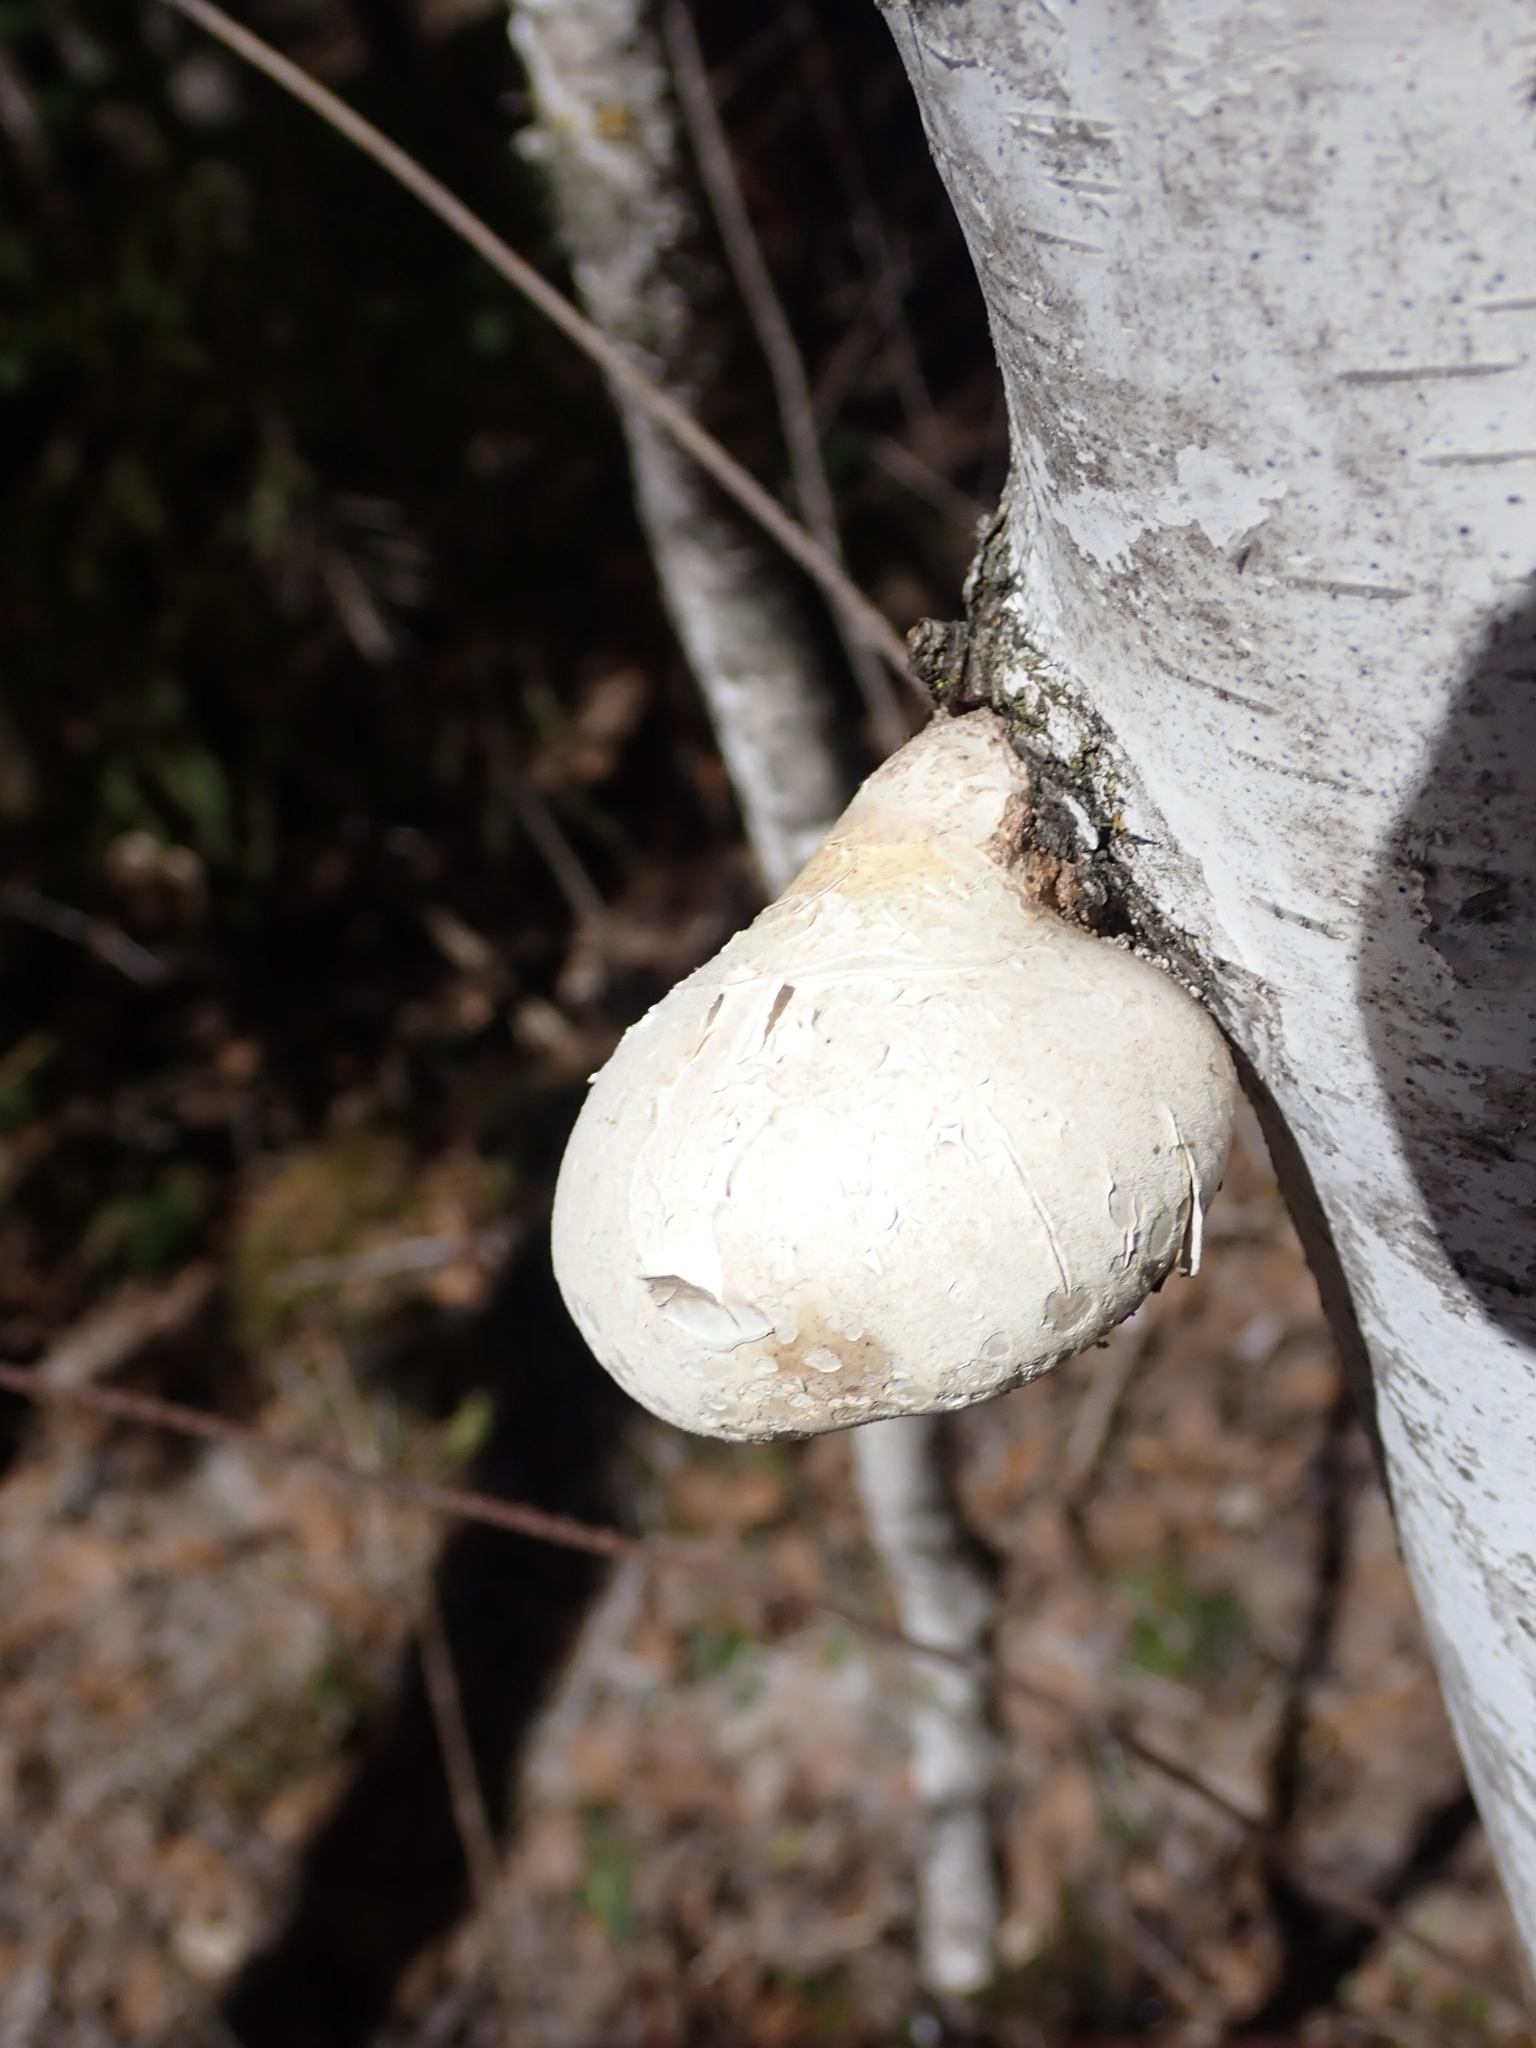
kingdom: Fungi
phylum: Basidiomycota
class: Agaricomycetes
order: Polyporales
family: Fomitopsidaceae
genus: Fomitopsis
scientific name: Fomitopsis betulina
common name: Birch polypore
